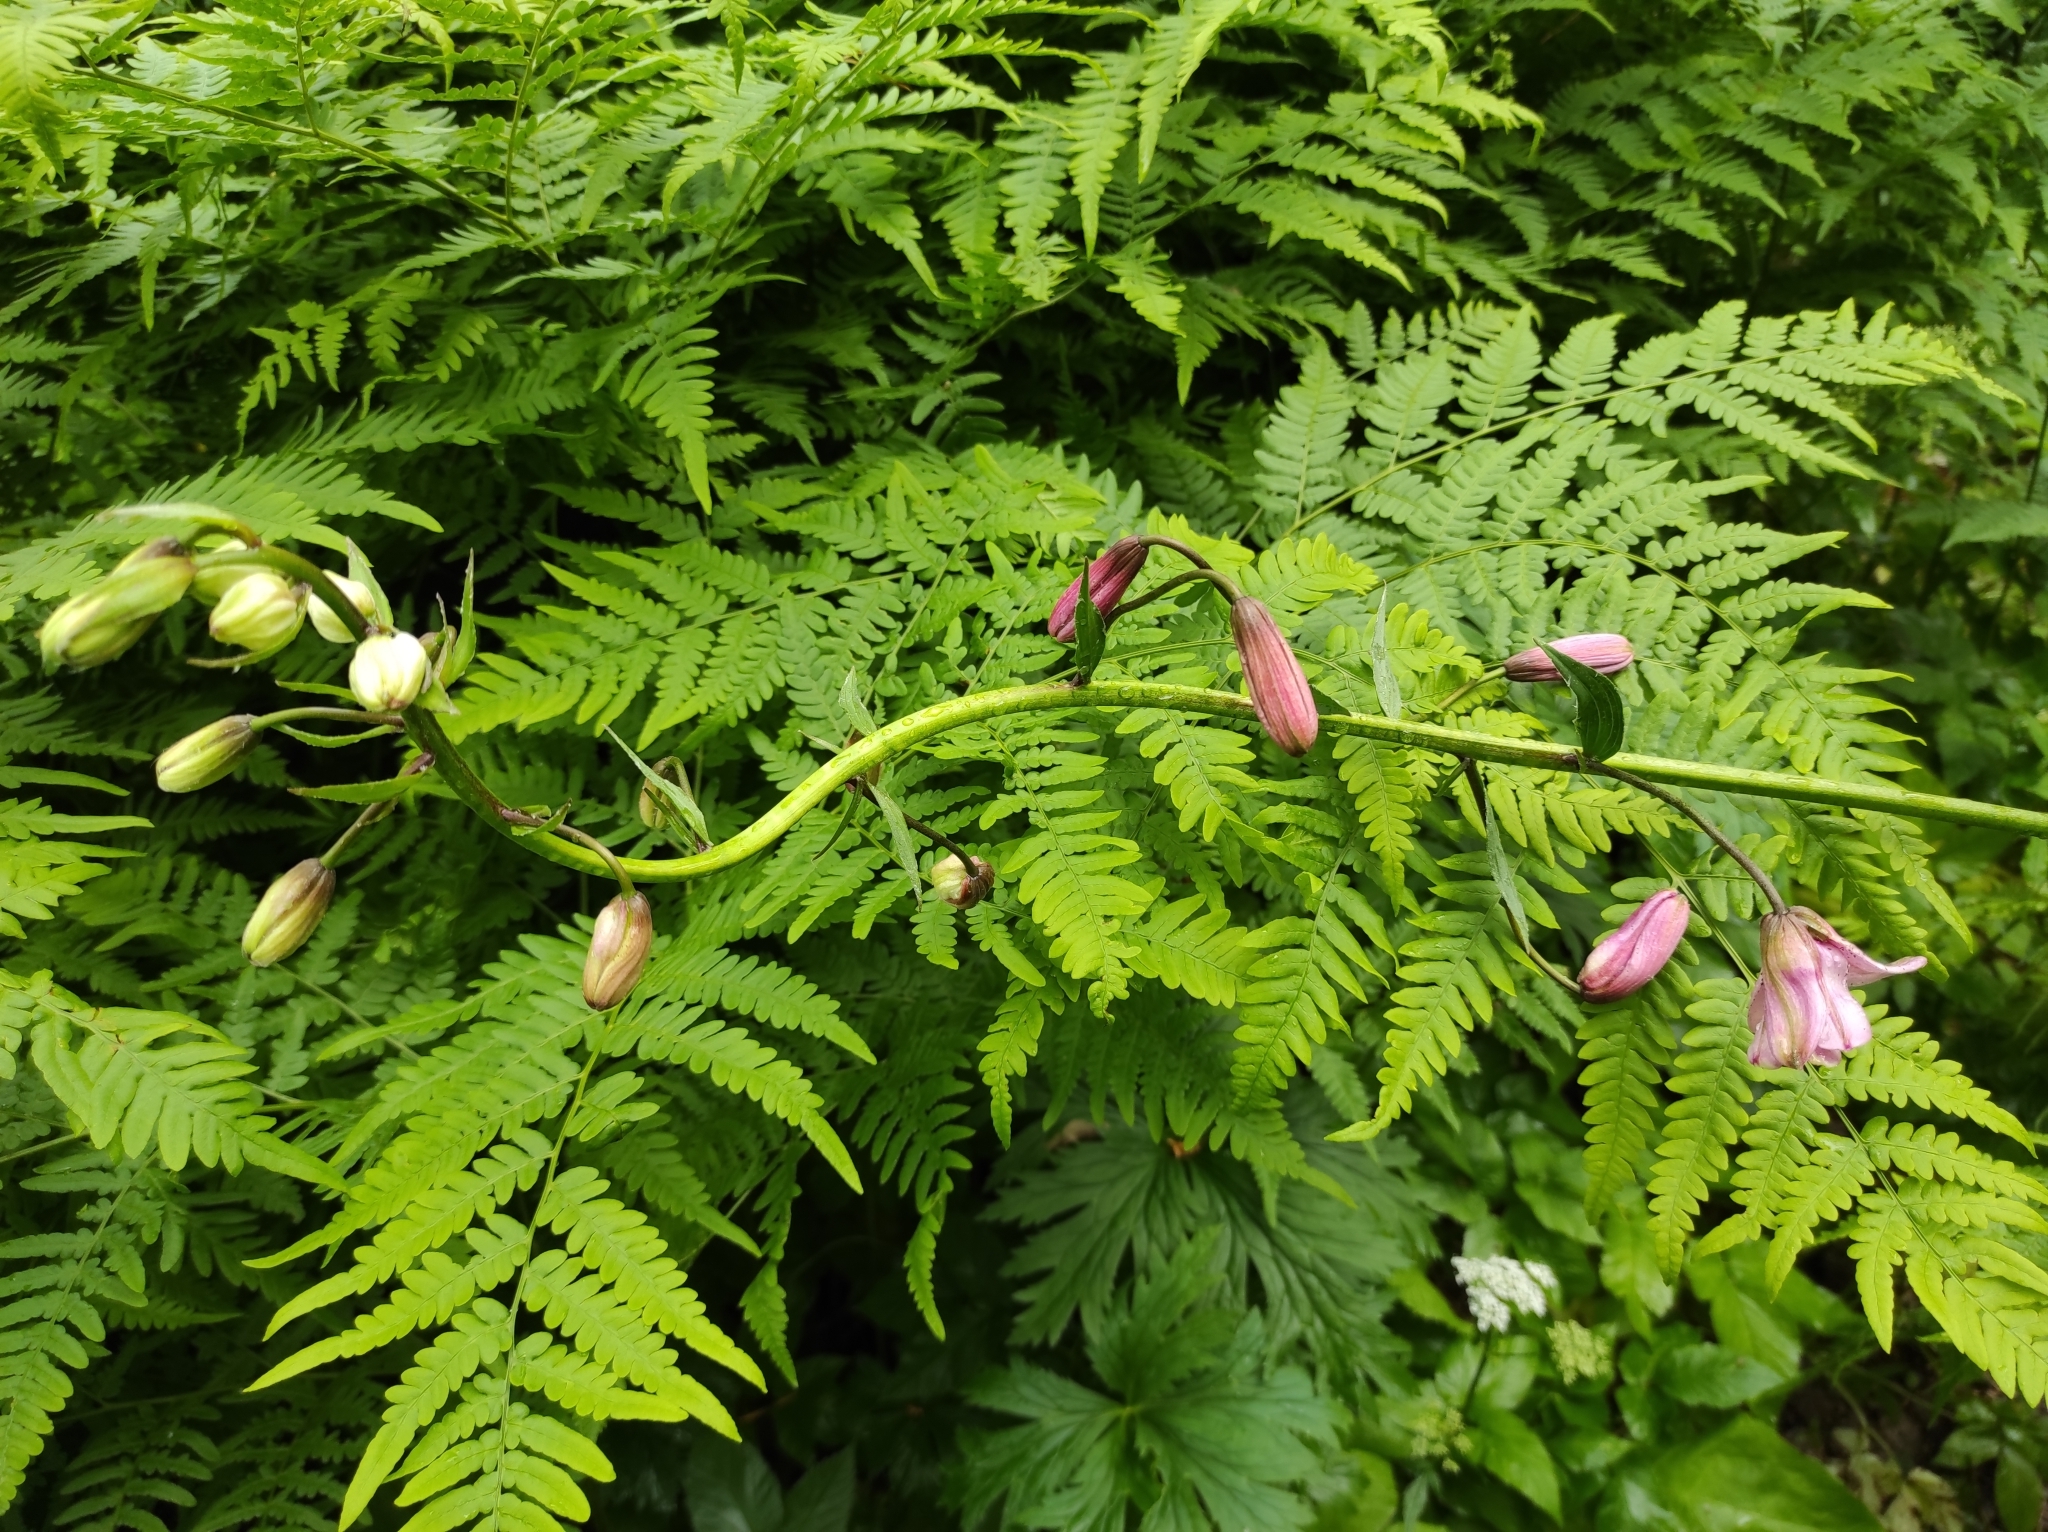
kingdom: Plantae
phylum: Tracheophyta
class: Liliopsida
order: Liliales
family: Liliaceae
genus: Lilium
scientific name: Lilium martagon
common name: Martagon lily
